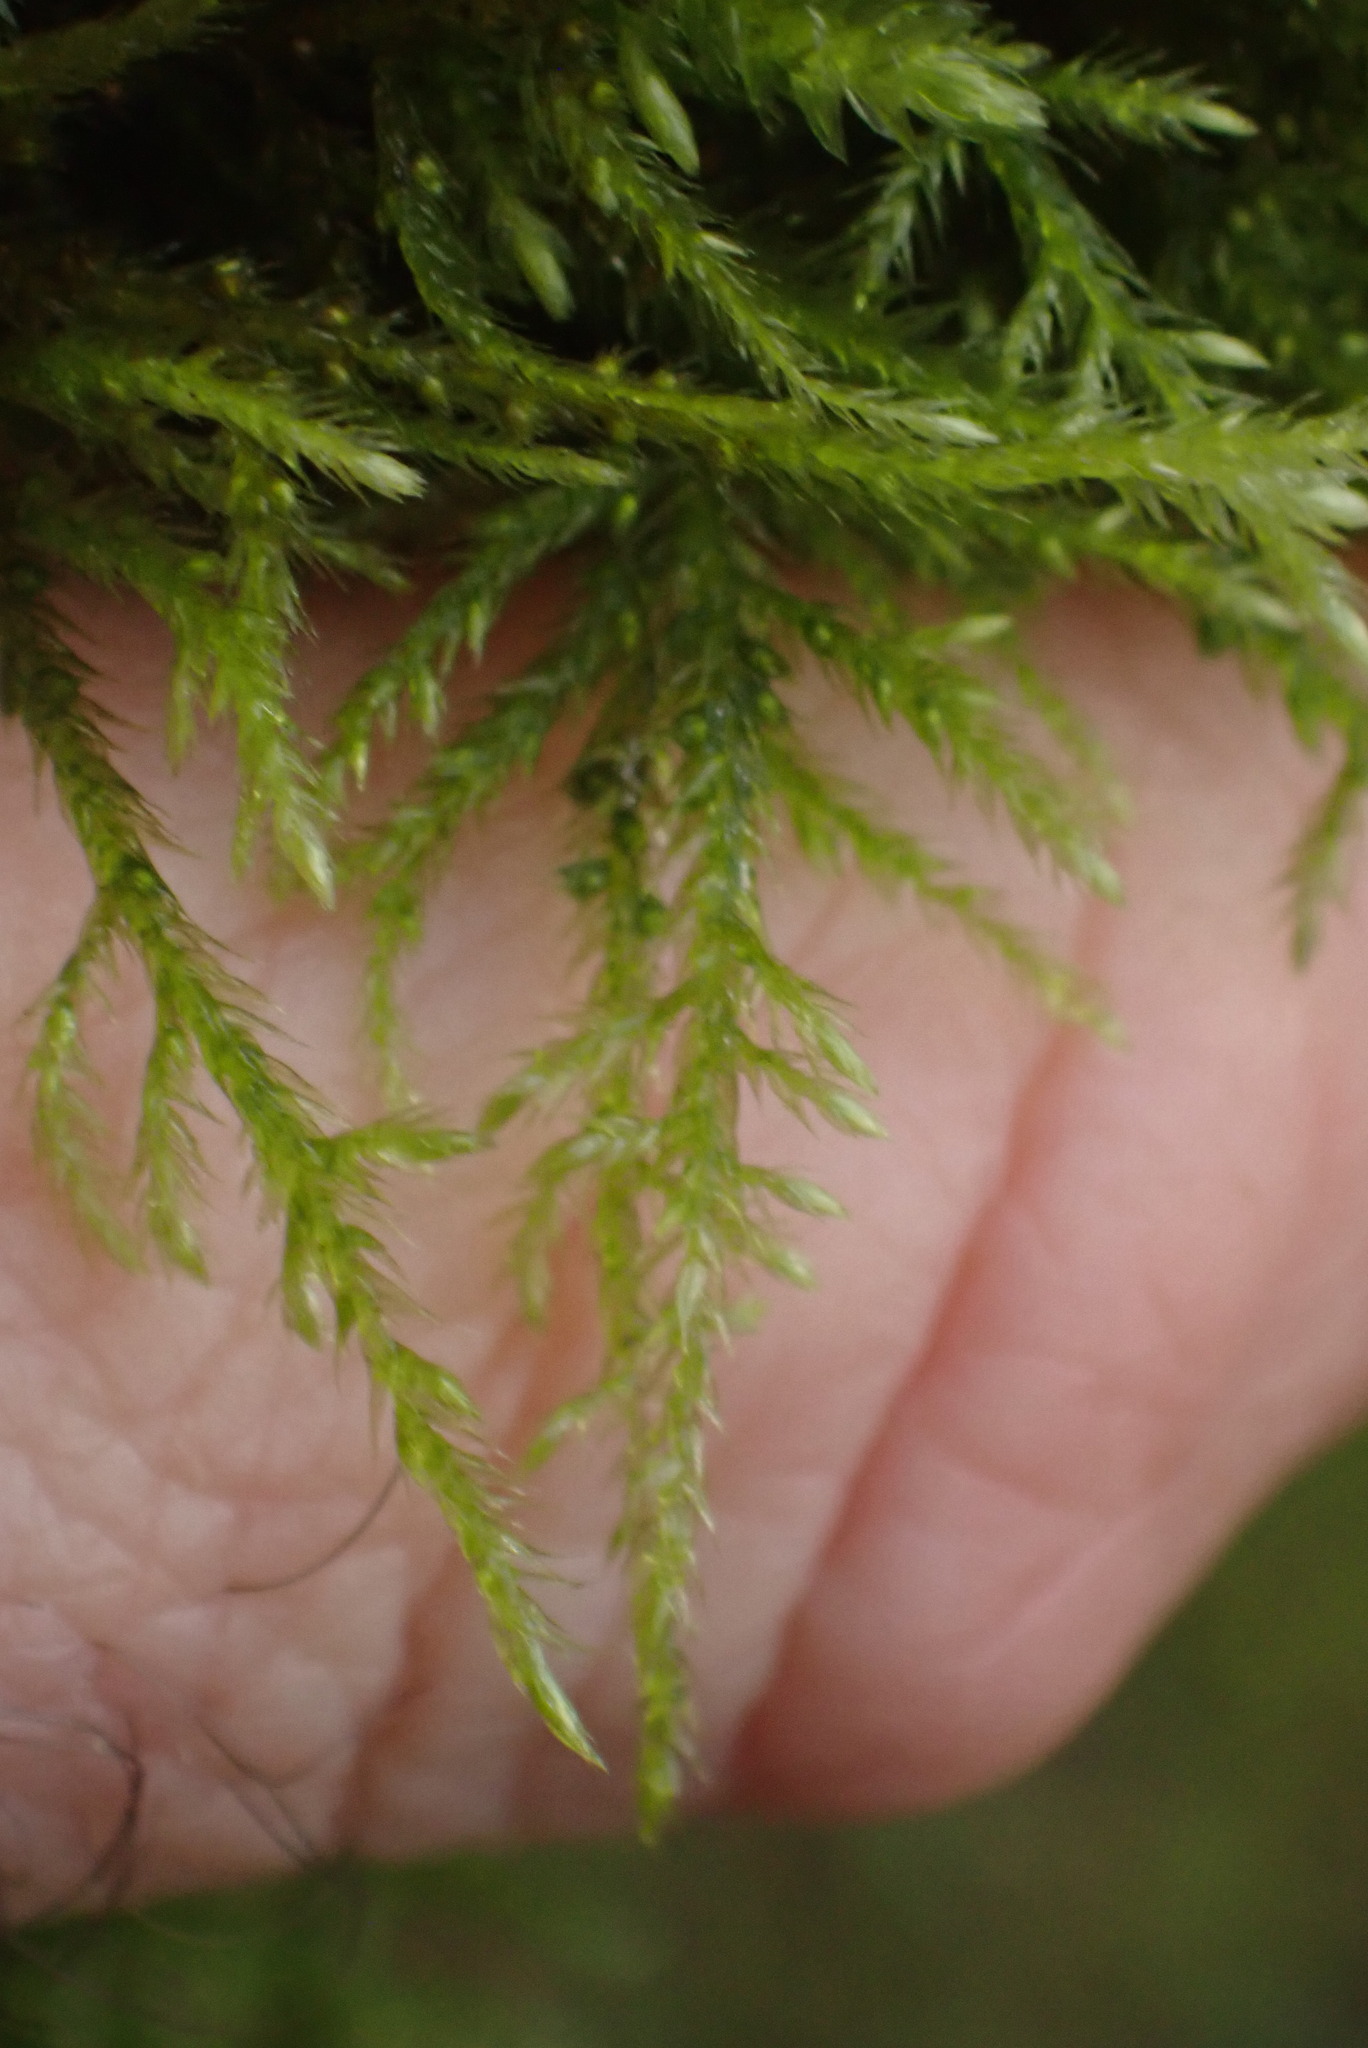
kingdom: Plantae
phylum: Bryophyta
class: Bryopsida
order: Hypnales
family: Lembophyllaceae
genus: Pseudisothecium
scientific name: Pseudisothecium stoloniferum
